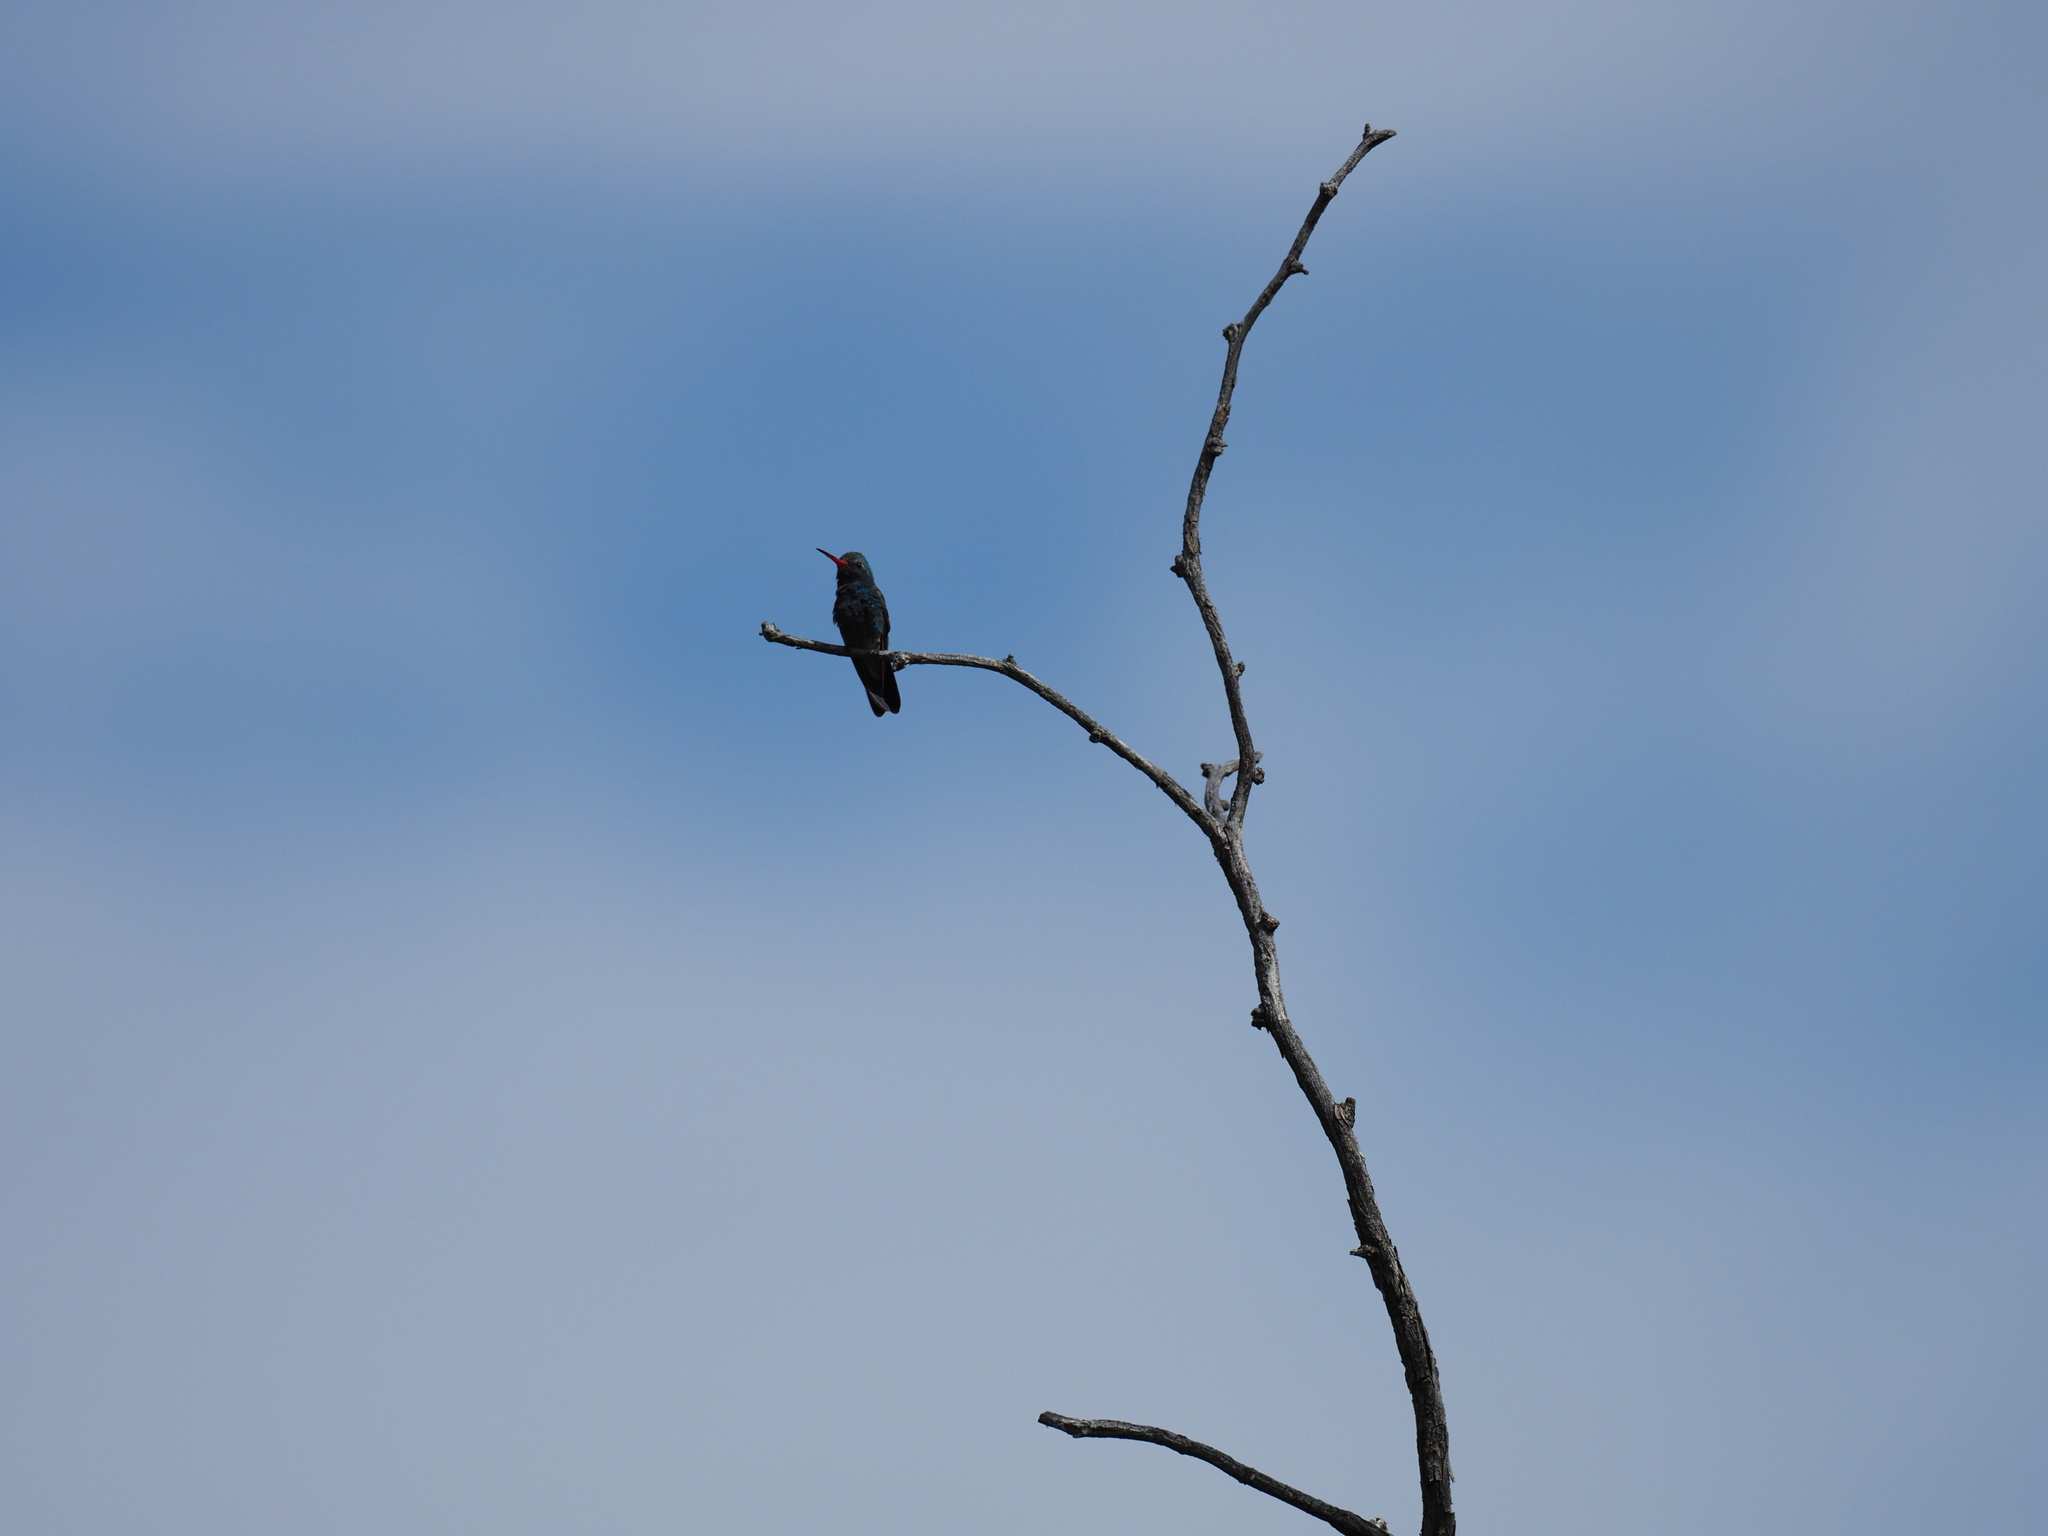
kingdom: Animalia
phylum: Chordata
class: Aves
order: Apodiformes
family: Trochilidae
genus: Cynanthus
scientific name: Cynanthus latirostris
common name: Broad-billed hummingbird
